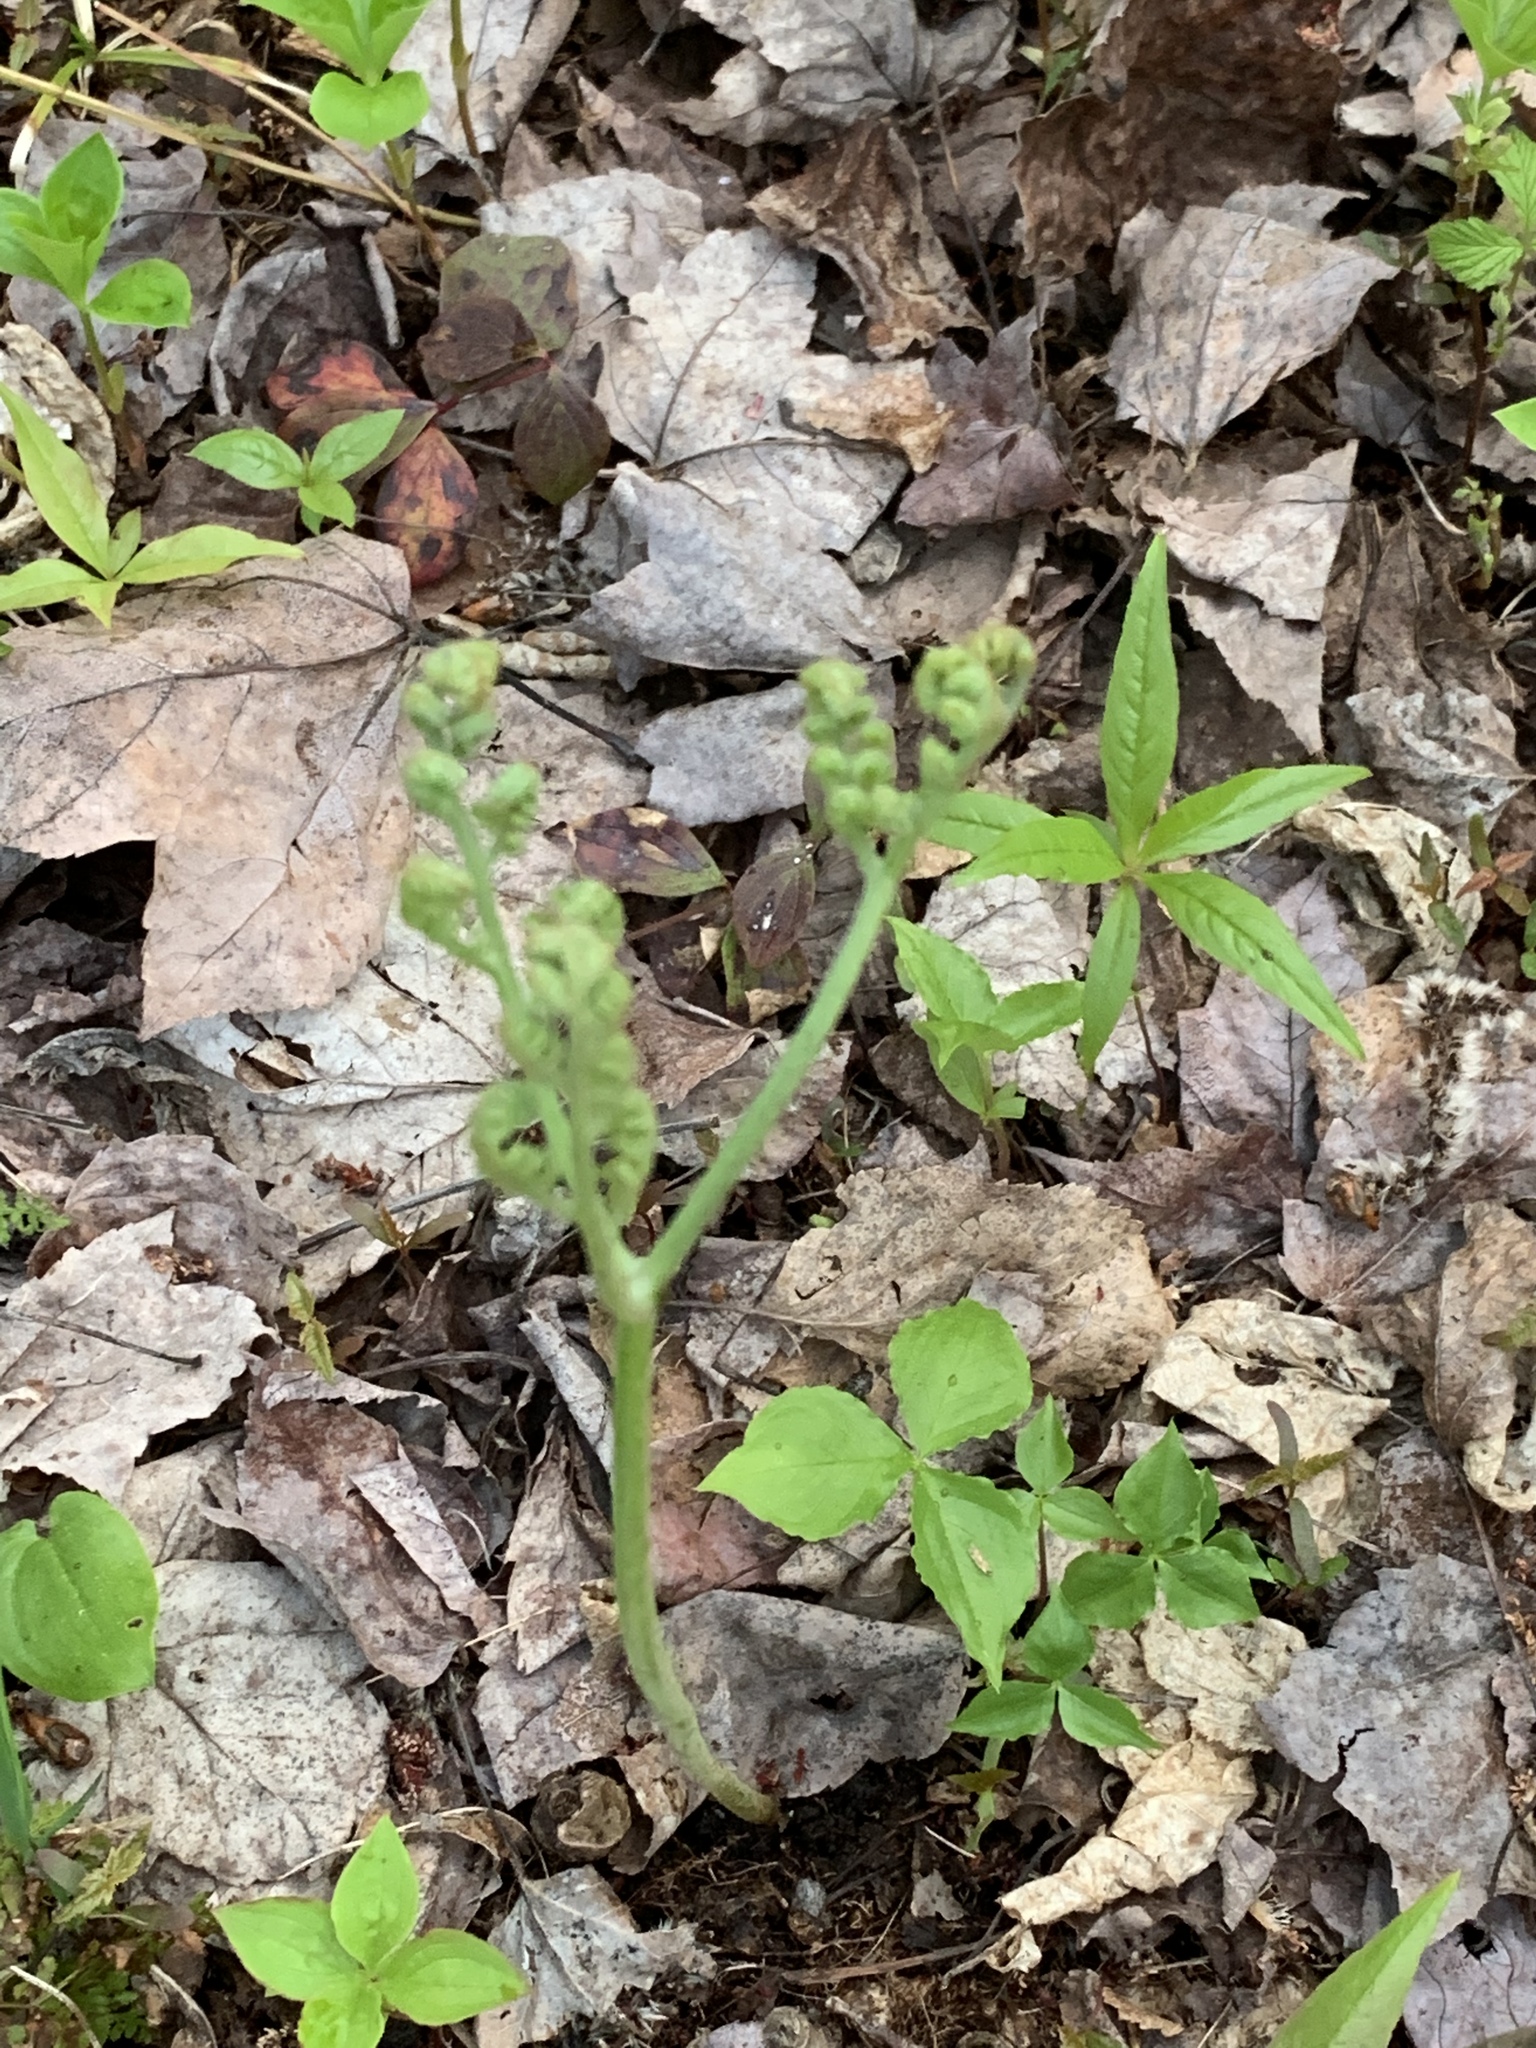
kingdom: Plantae
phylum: Tracheophyta
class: Polypodiopsida
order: Polypodiales
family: Dennstaedtiaceae
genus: Pteridium
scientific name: Pteridium aquilinum
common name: Bracken
